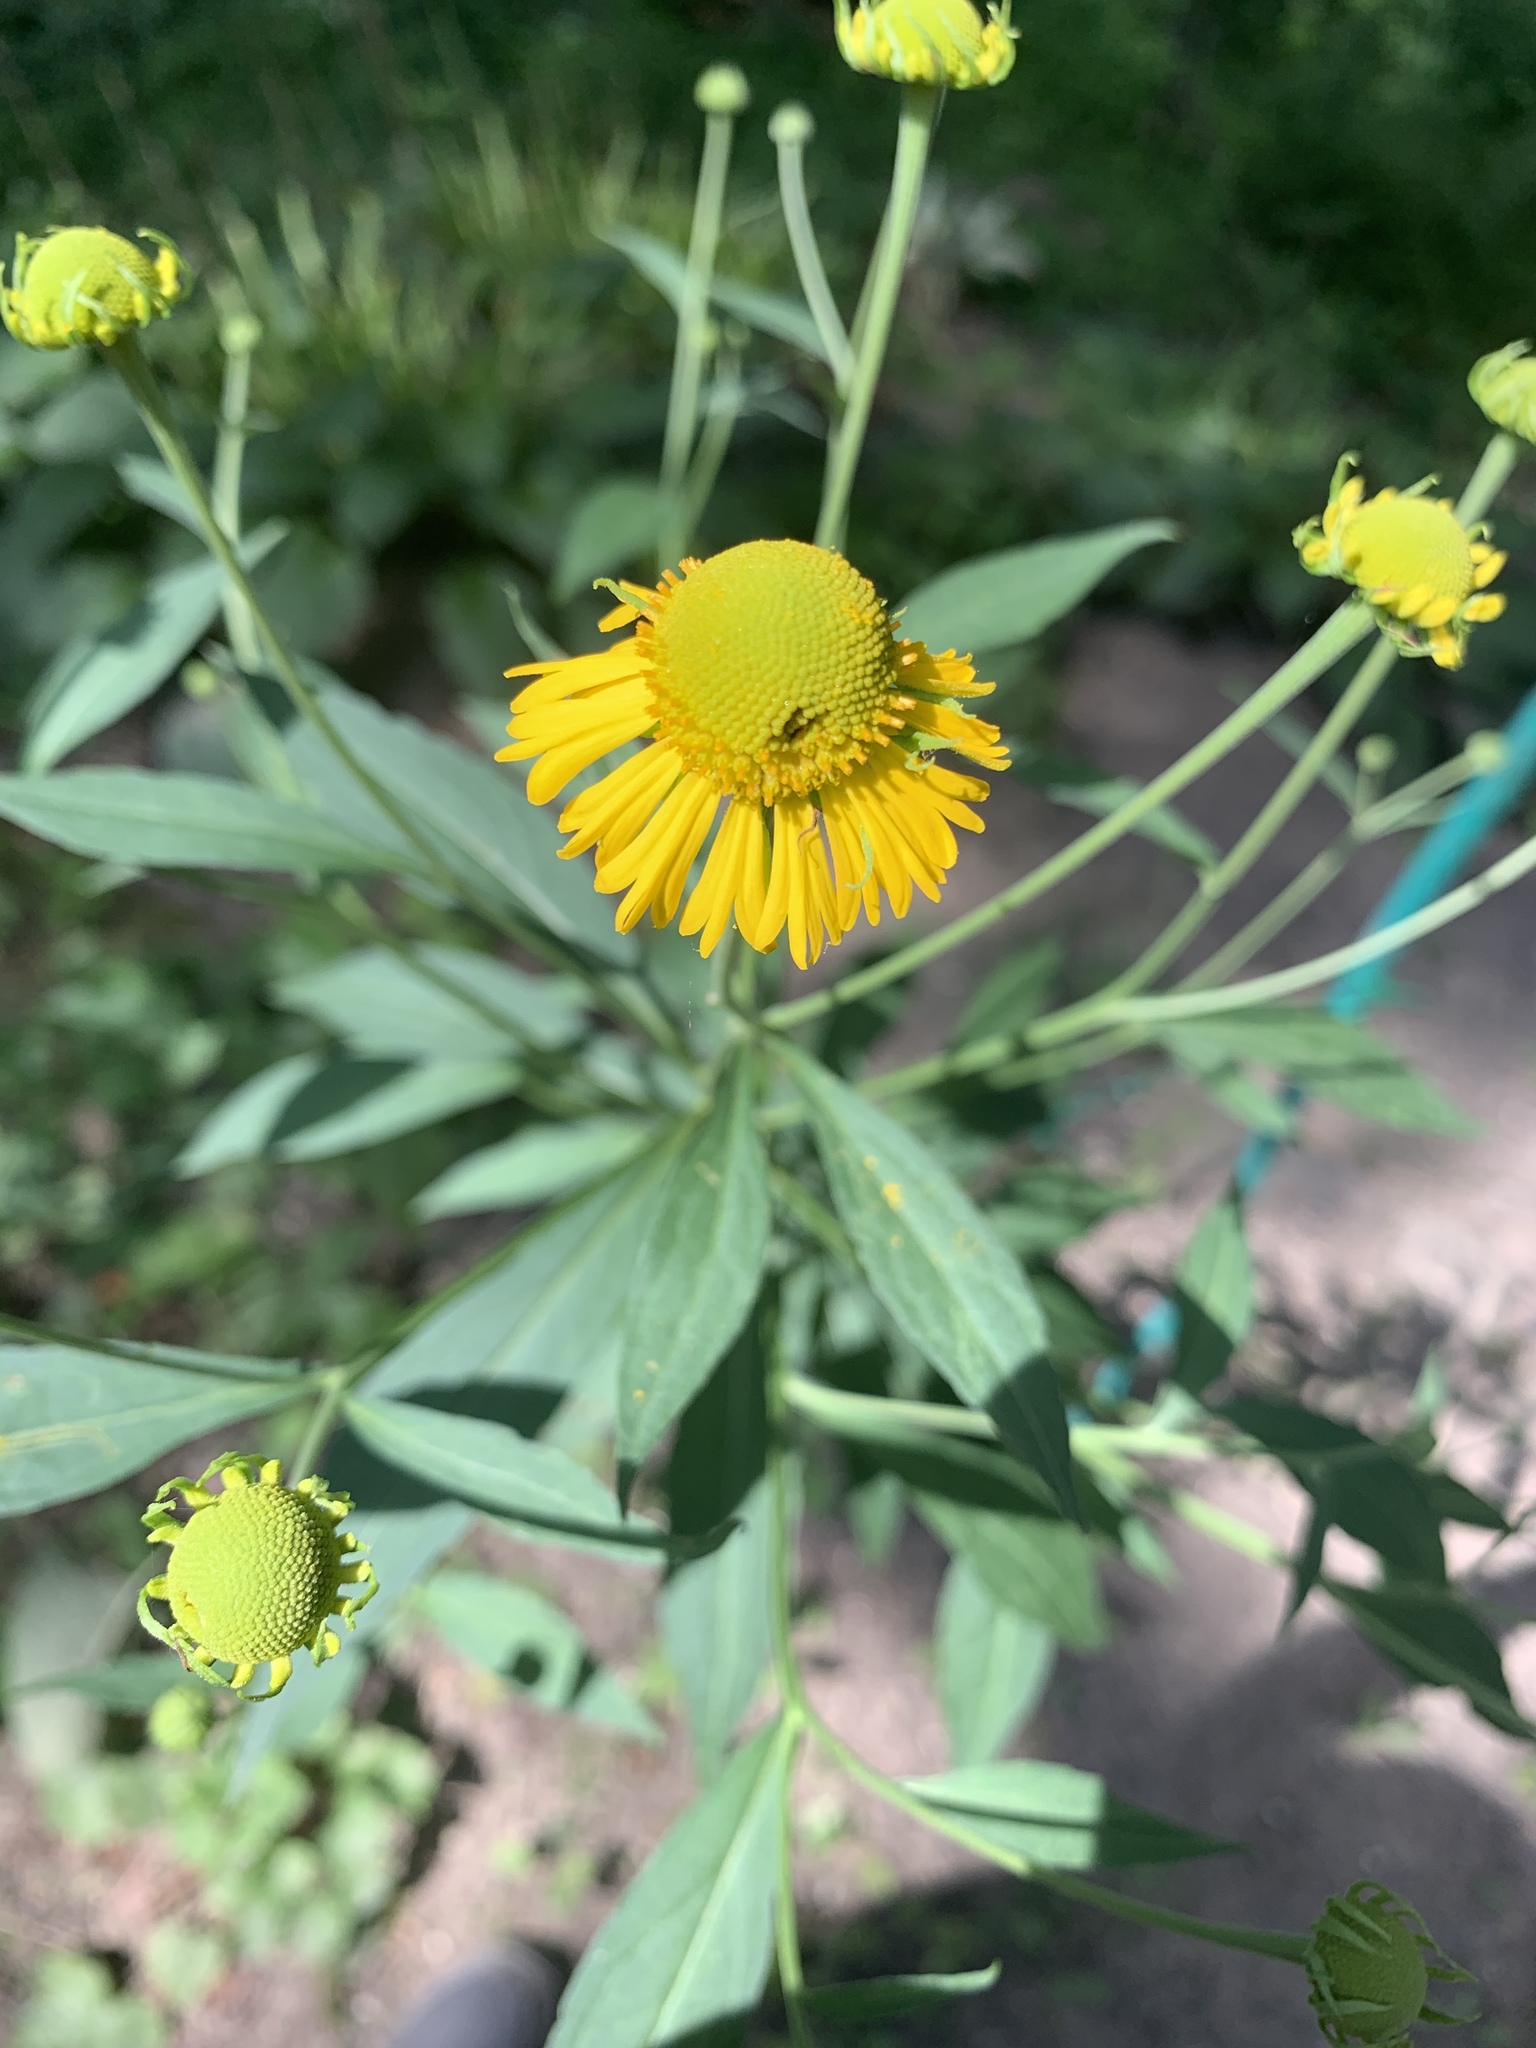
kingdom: Plantae
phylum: Tracheophyta
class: Magnoliopsida
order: Asterales
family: Asteraceae
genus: Helenium
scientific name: Helenium autumnale
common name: Sneezeweed
